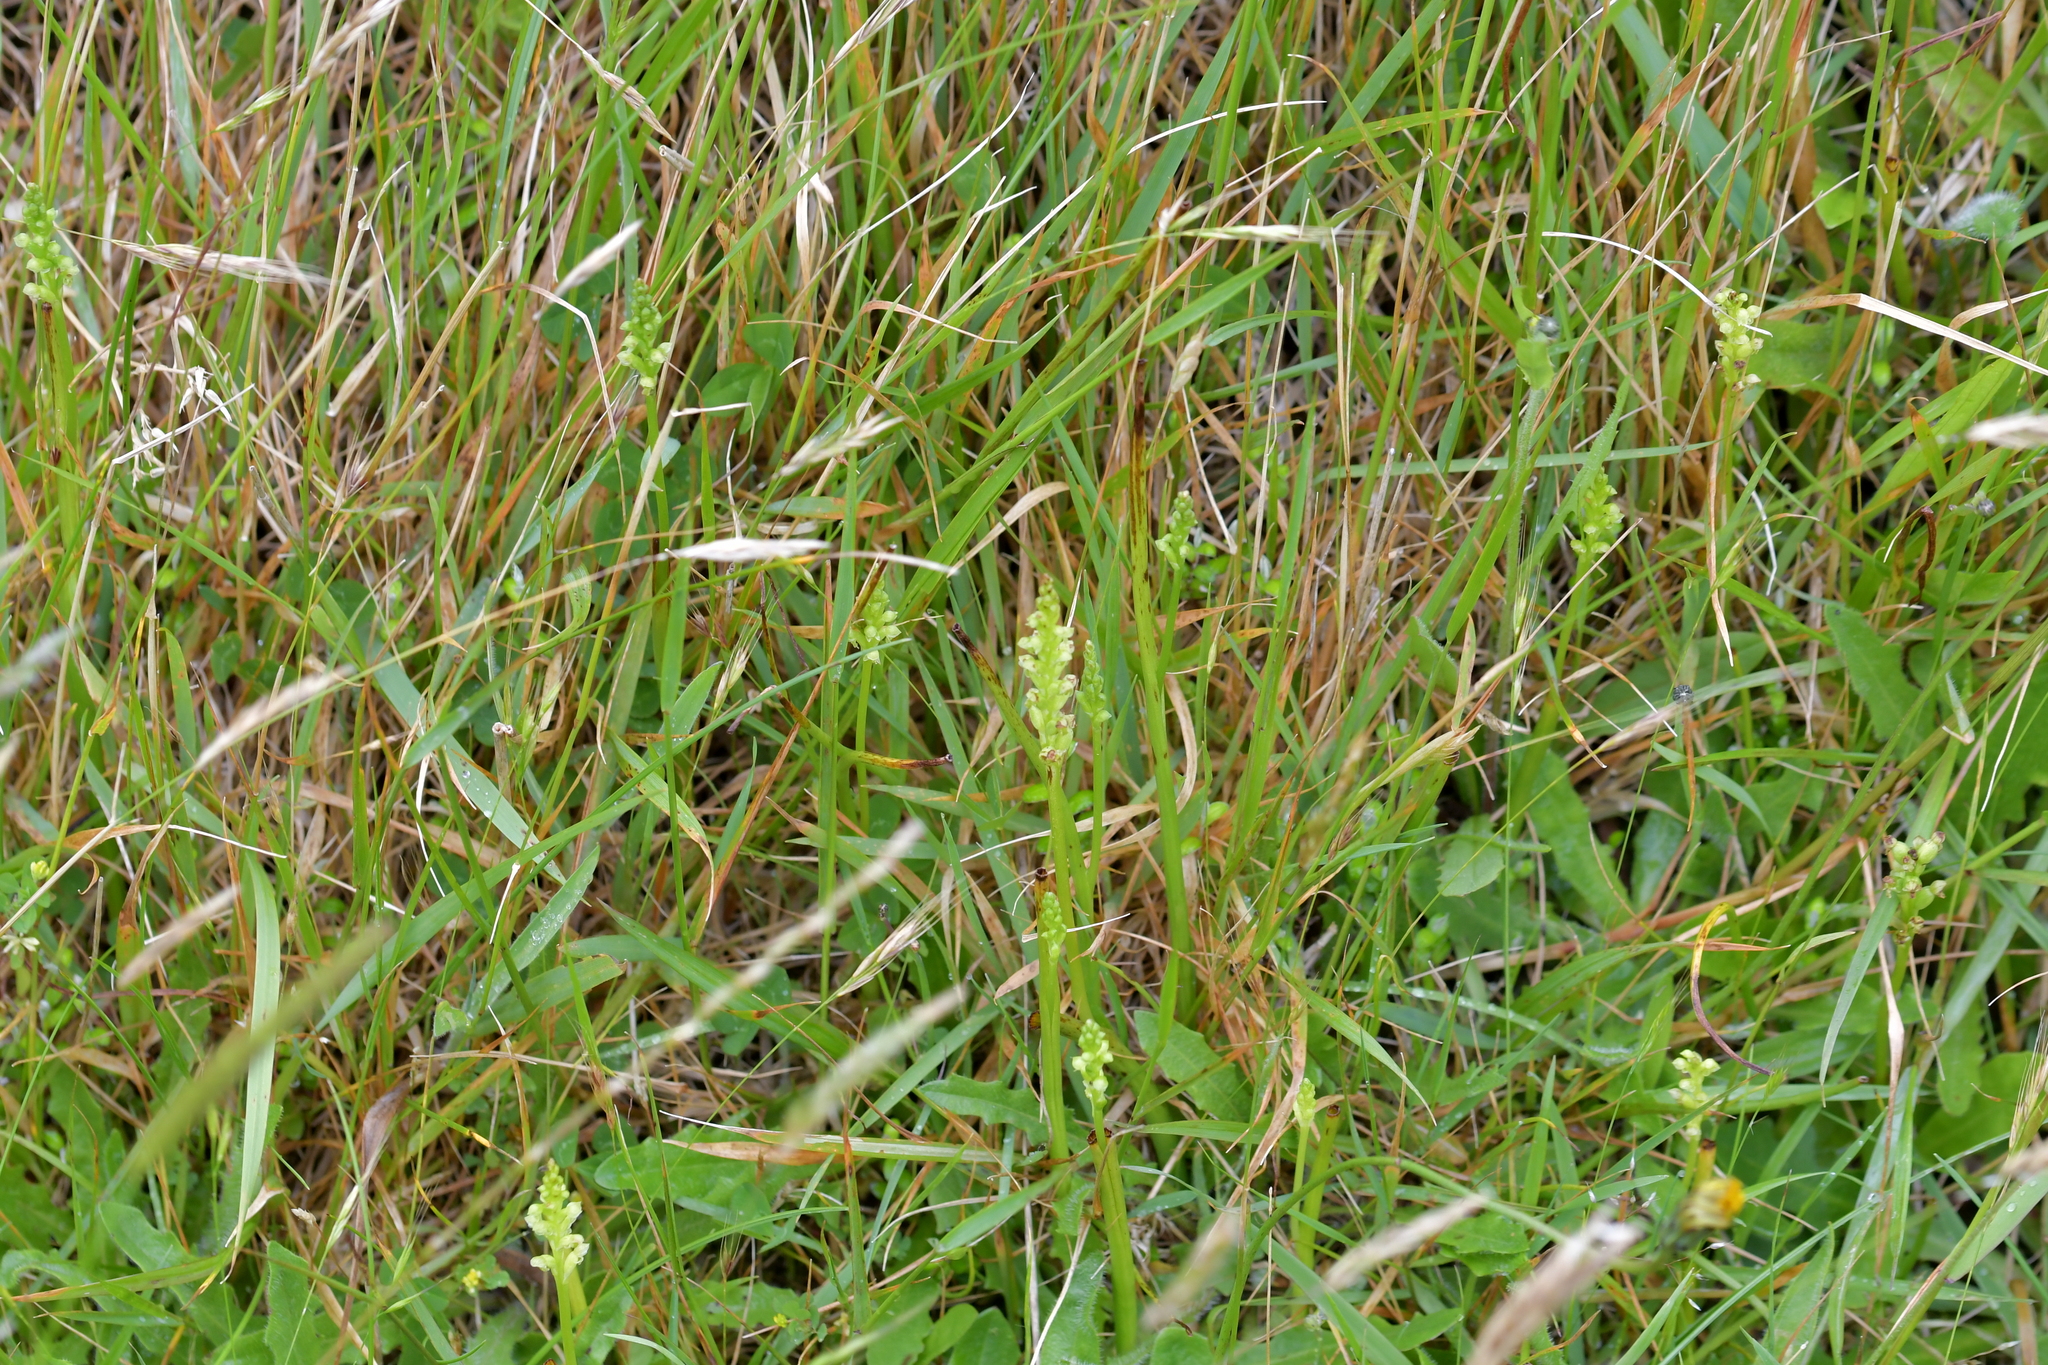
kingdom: Plantae
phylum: Tracheophyta
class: Liliopsida
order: Asparagales
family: Orchidaceae
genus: Microtis
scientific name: Microtis unifolia
